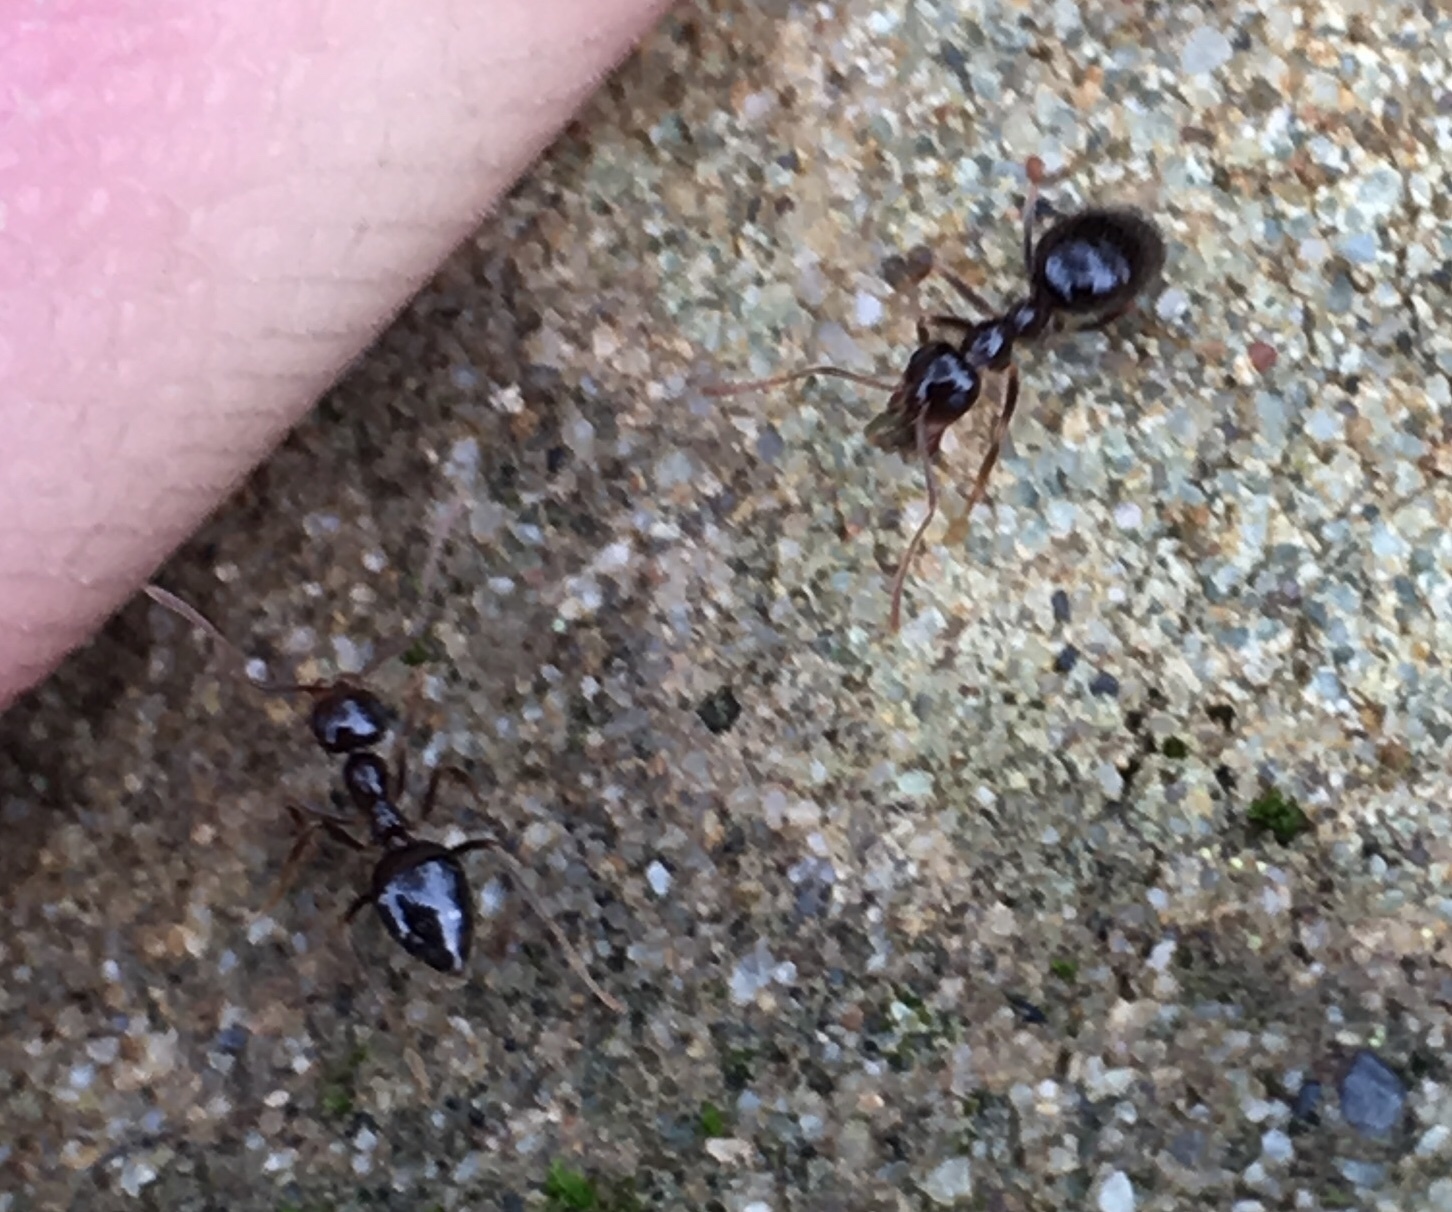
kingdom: Animalia
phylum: Arthropoda
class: Insecta
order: Hymenoptera
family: Formicidae
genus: Prenolepis
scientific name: Prenolepis imparis
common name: Small honey ant
